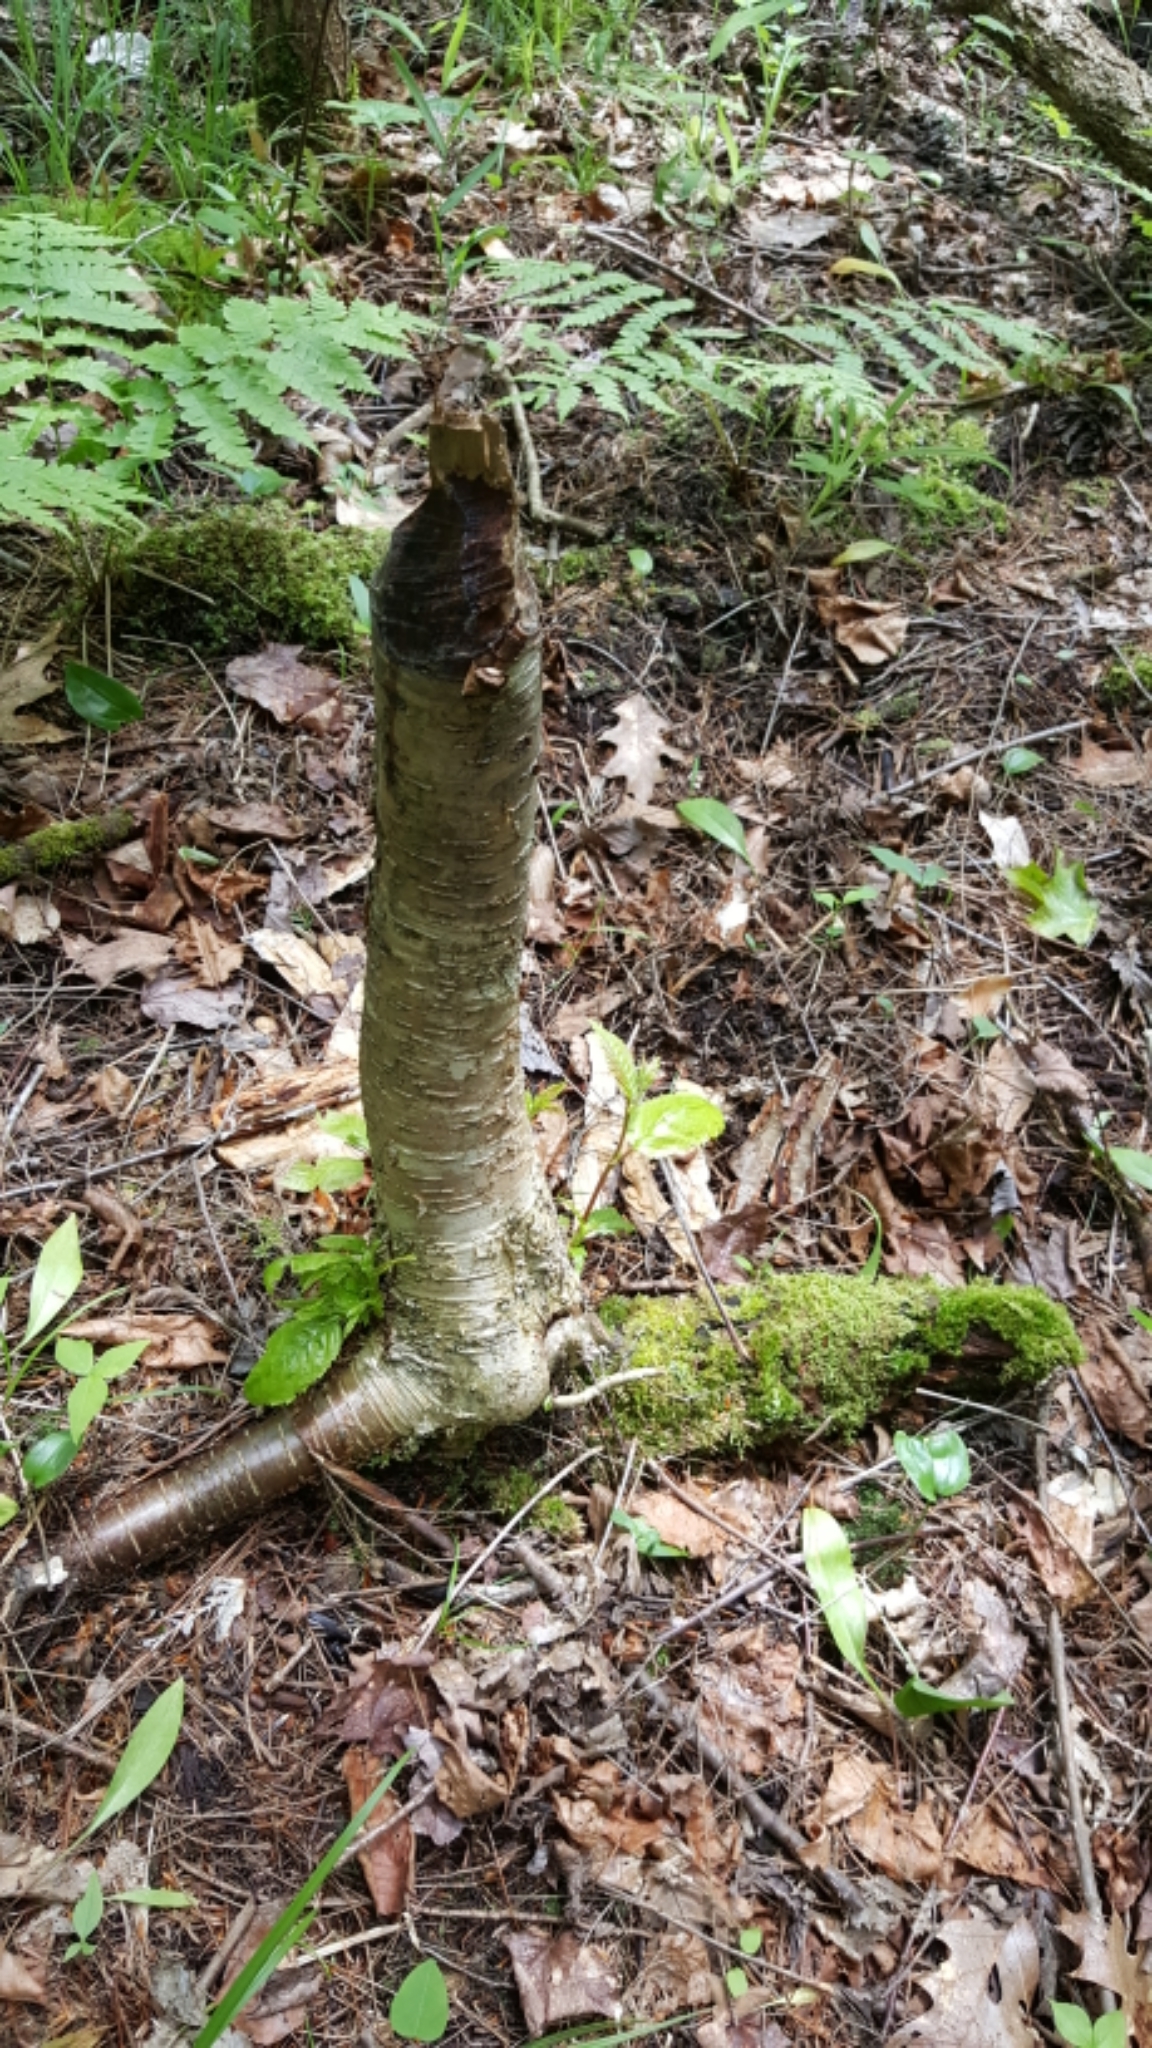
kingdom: Animalia
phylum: Chordata
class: Mammalia
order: Rodentia
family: Castoridae
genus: Castor
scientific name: Castor canadensis
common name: American beaver
